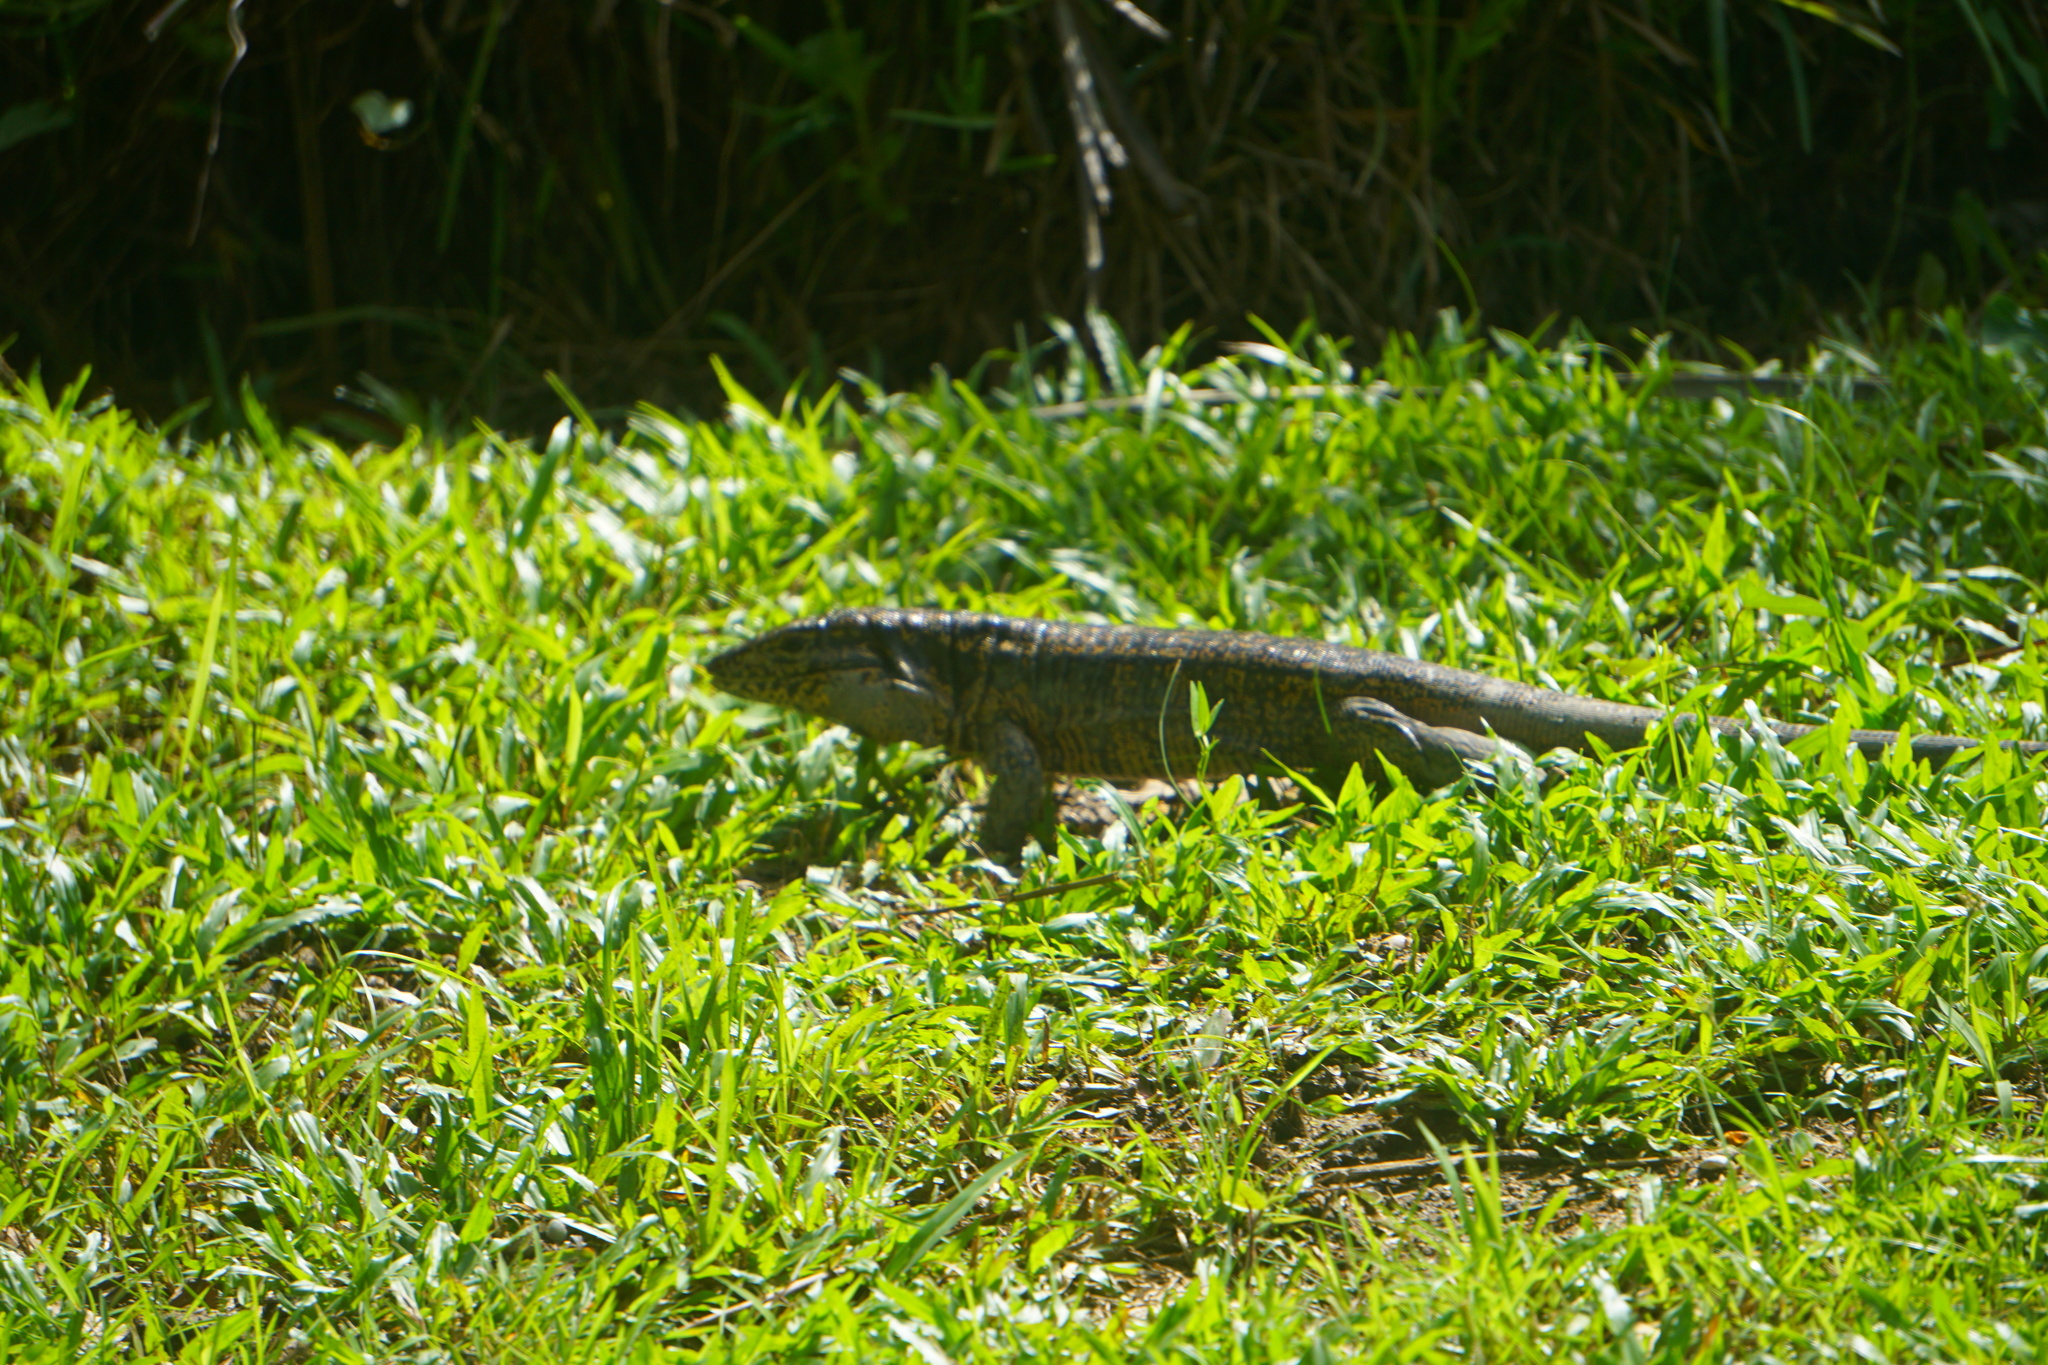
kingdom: Animalia
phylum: Chordata
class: Squamata
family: Teiidae
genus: Tupinambis
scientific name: Tupinambis teguixin
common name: Black tegu
